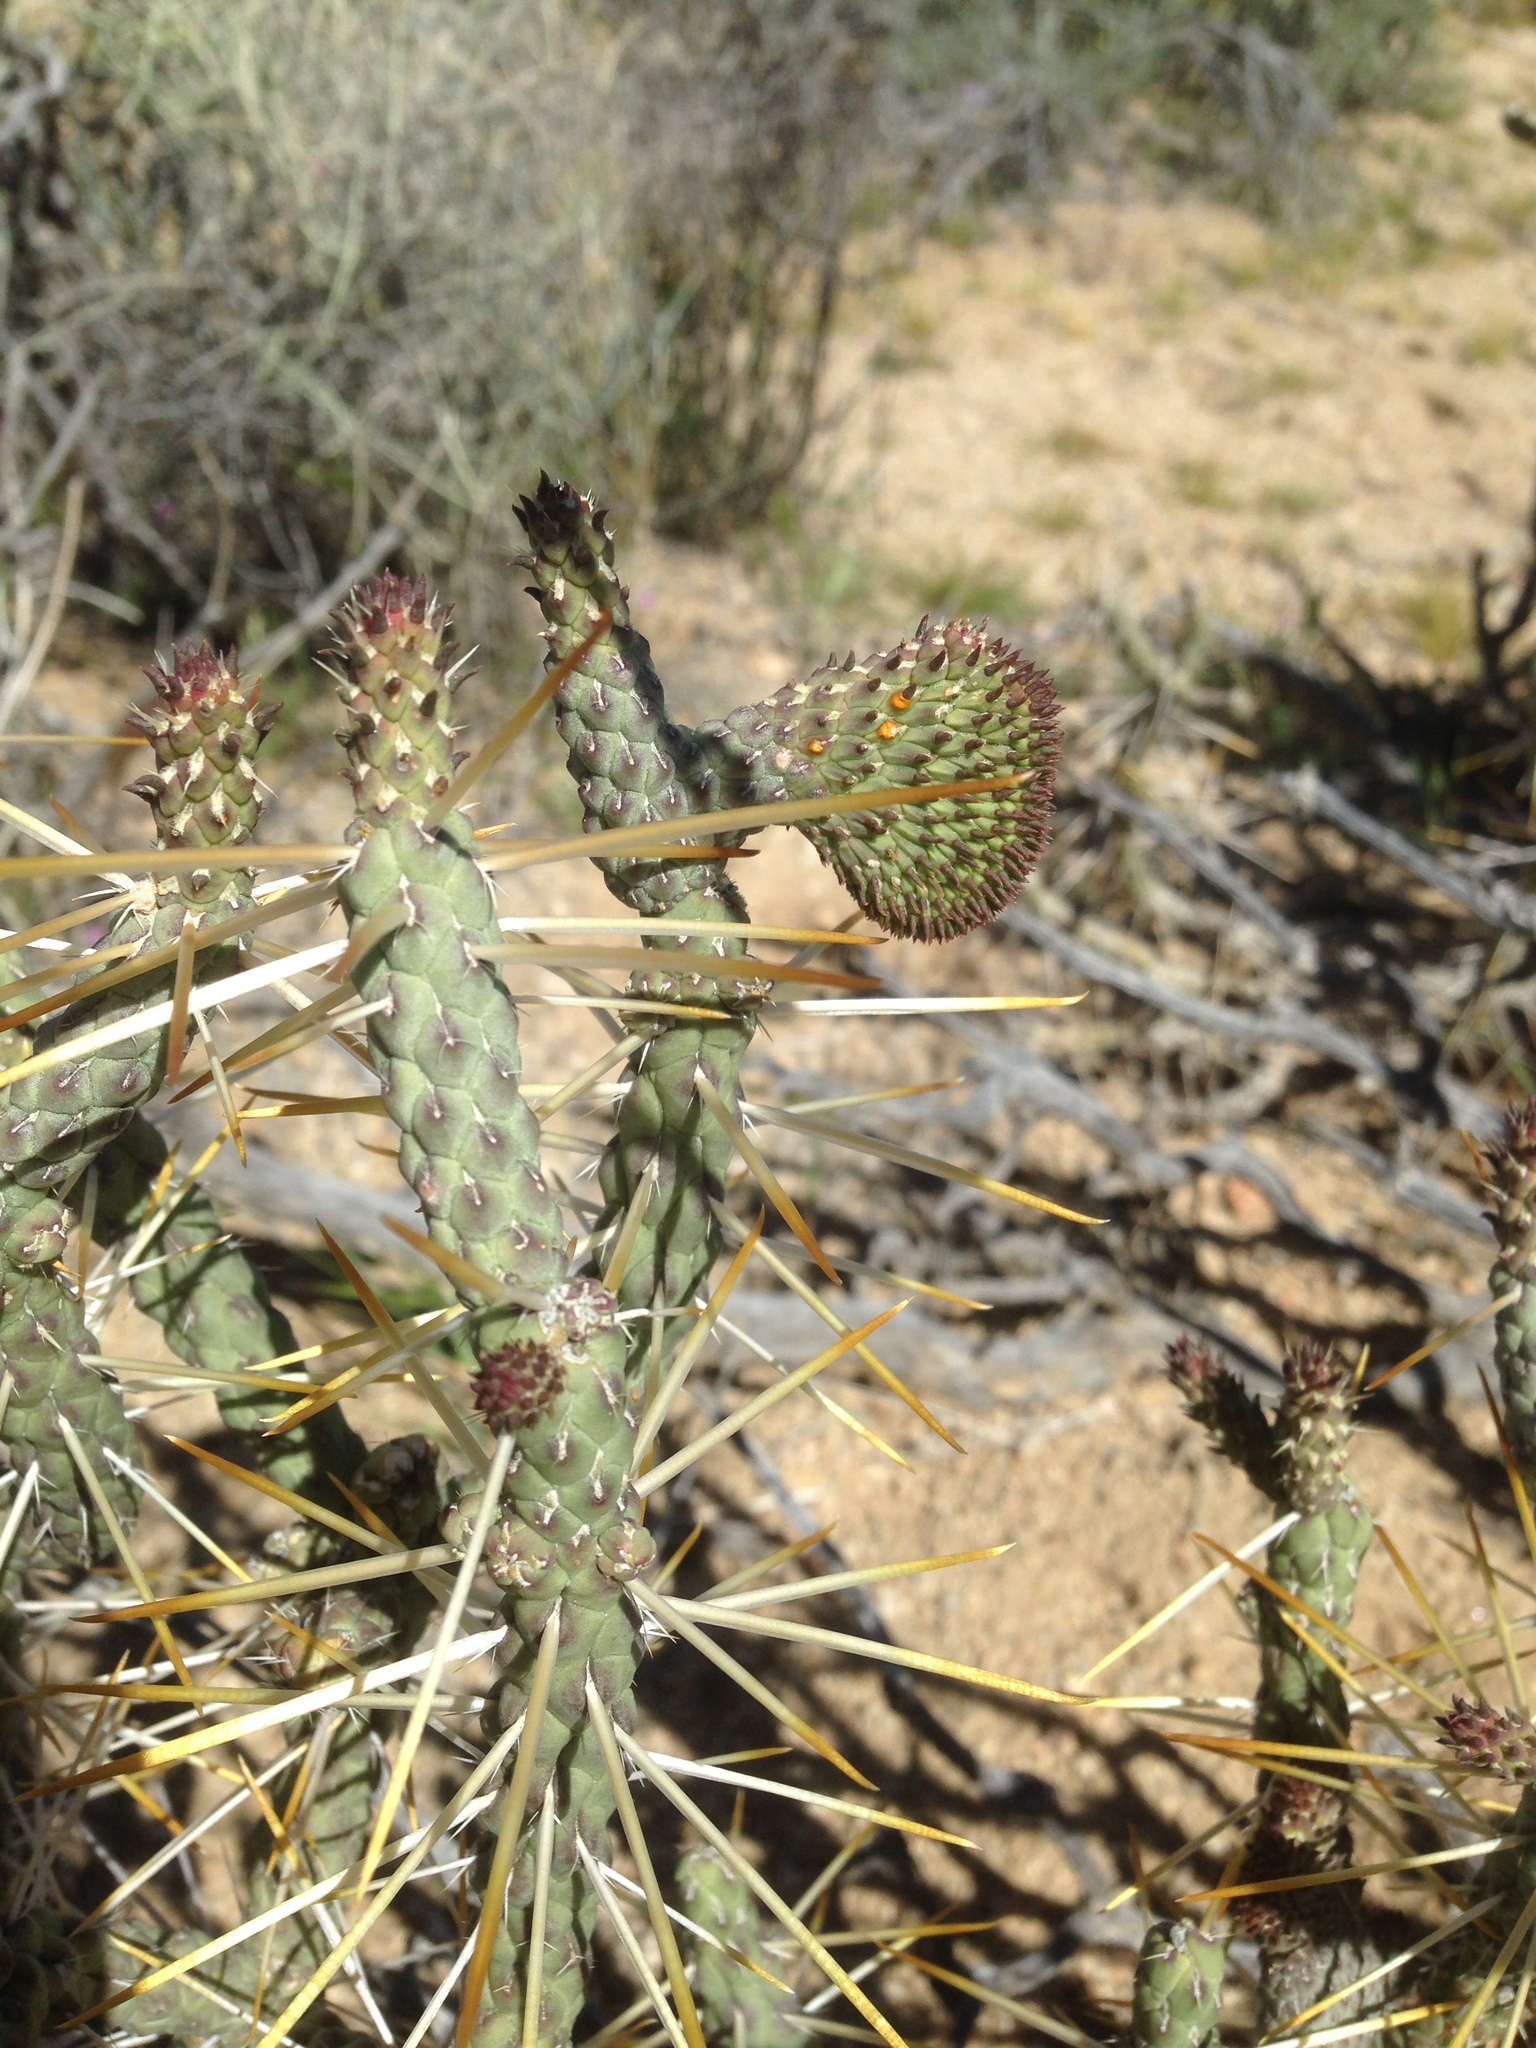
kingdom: Plantae
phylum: Tracheophyta
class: Magnoliopsida
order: Caryophyllales
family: Cactaceae
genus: Cylindropuntia
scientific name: Cylindropuntia ramosissima
